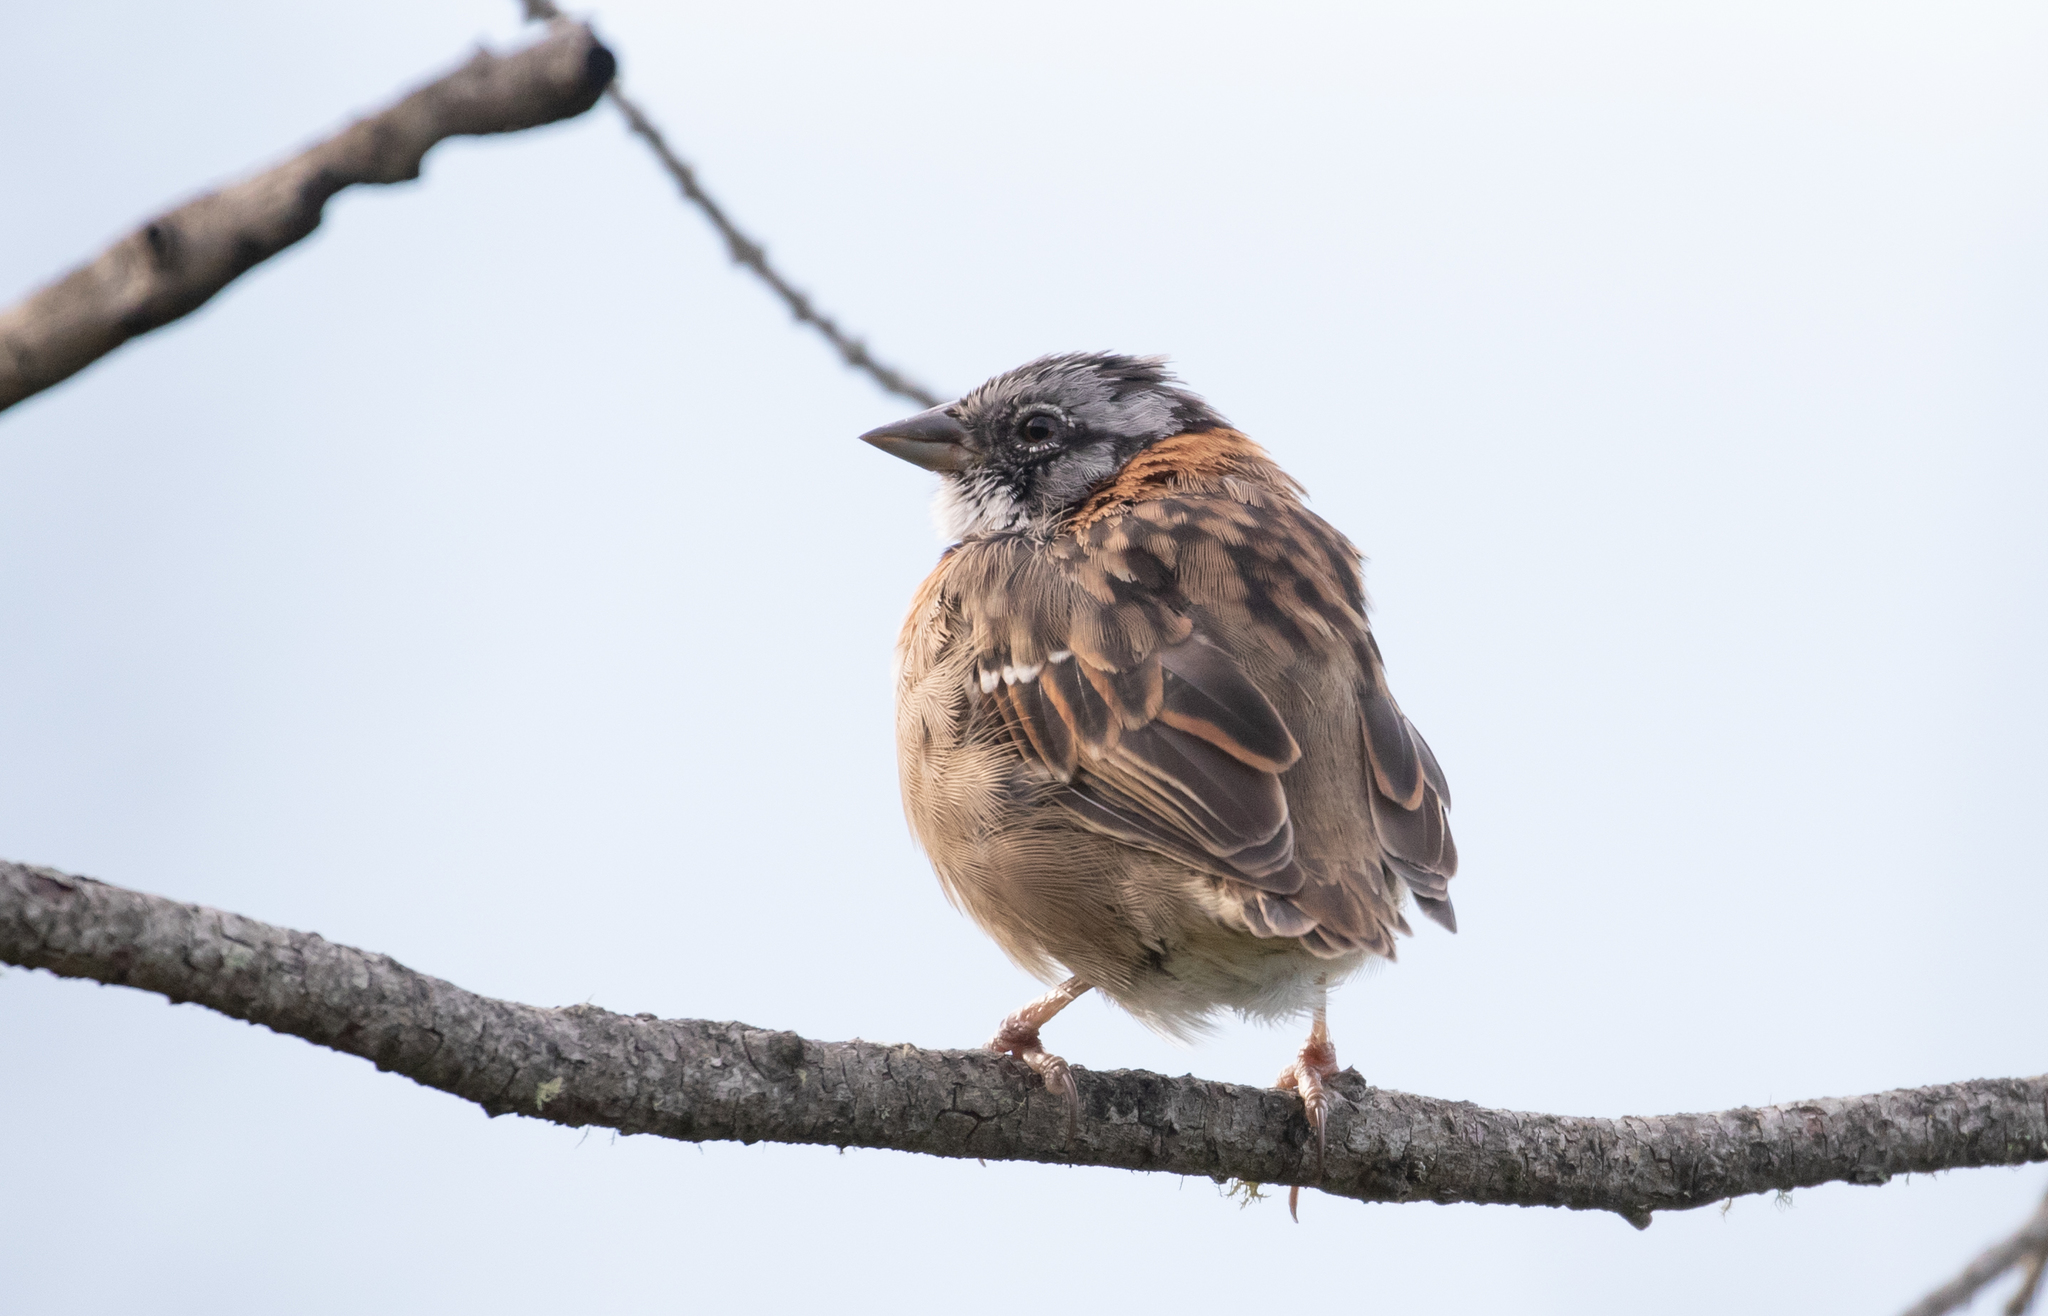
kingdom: Animalia
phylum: Chordata
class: Aves
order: Passeriformes
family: Passerellidae
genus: Zonotrichia
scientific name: Zonotrichia capensis
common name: Rufous-collared sparrow
